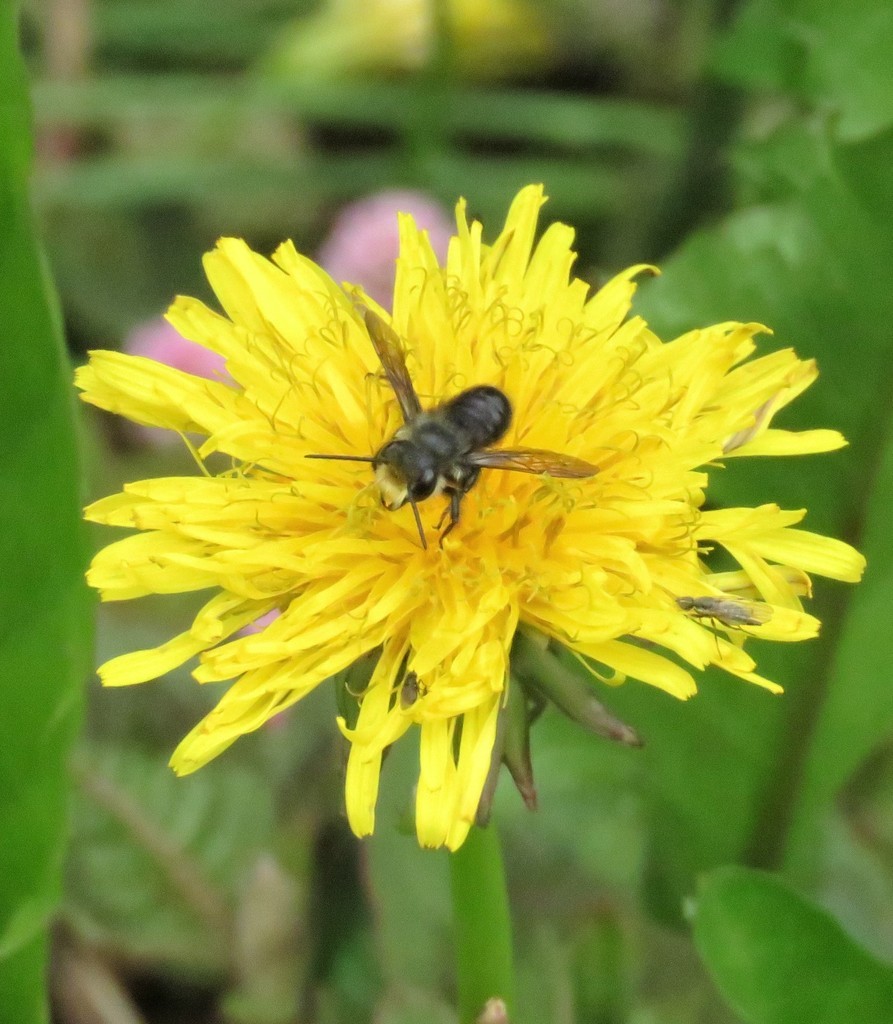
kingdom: Plantae
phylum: Tracheophyta
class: Magnoliopsida
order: Asterales
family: Asteraceae
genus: Taraxacum
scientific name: Taraxacum officinale
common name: Common dandelion
